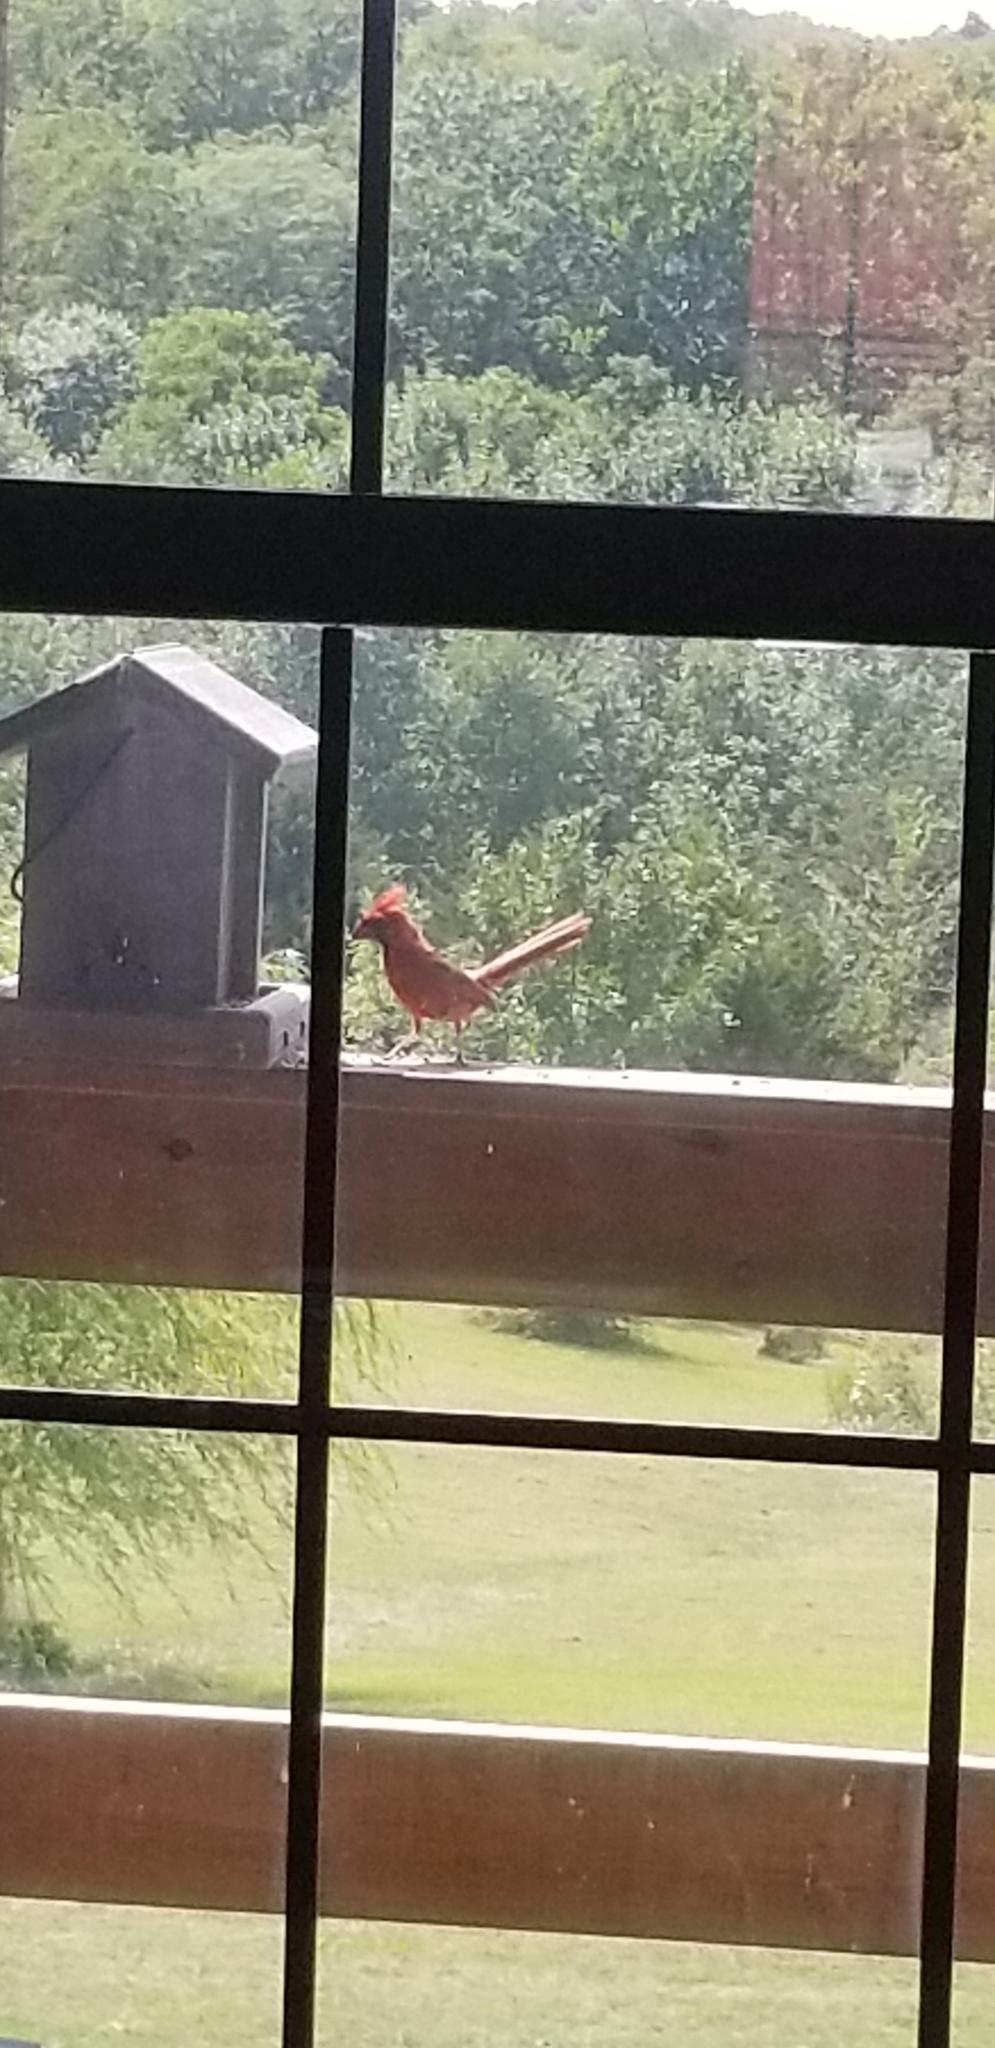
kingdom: Animalia
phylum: Chordata
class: Aves
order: Passeriformes
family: Cardinalidae
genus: Cardinalis
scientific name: Cardinalis cardinalis
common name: Northern cardinal
